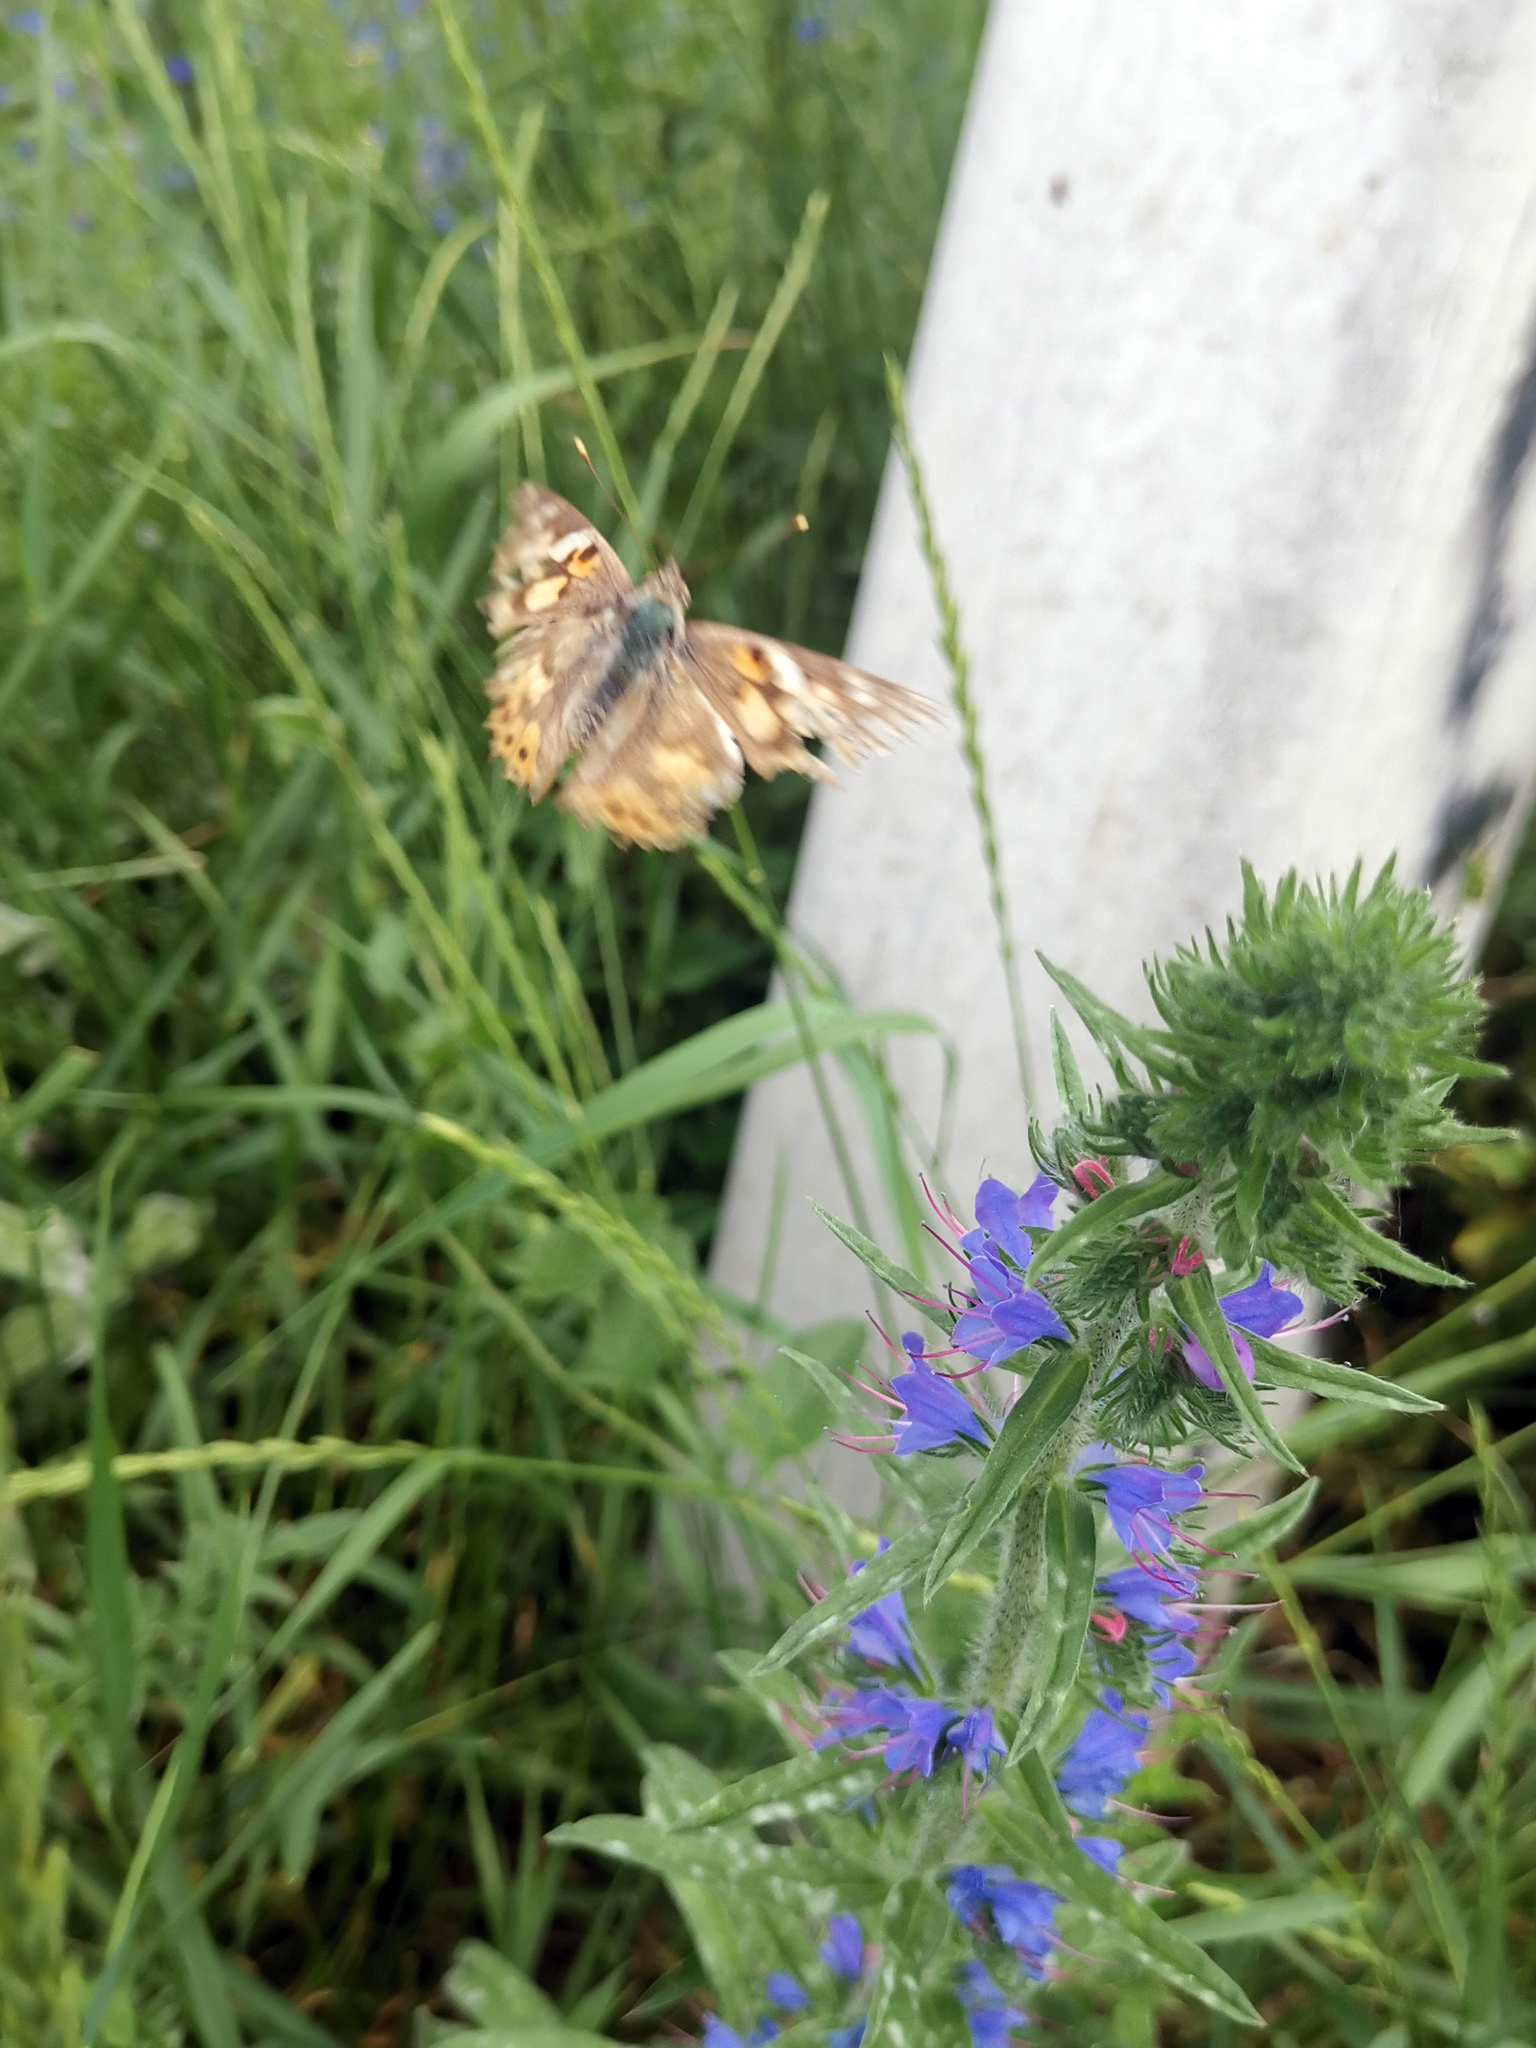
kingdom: Animalia
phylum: Arthropoda
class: Insecta
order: Lepidoptera
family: Nymphalidae
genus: Vanessa
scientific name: Vanessa cardui
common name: Painted lady
